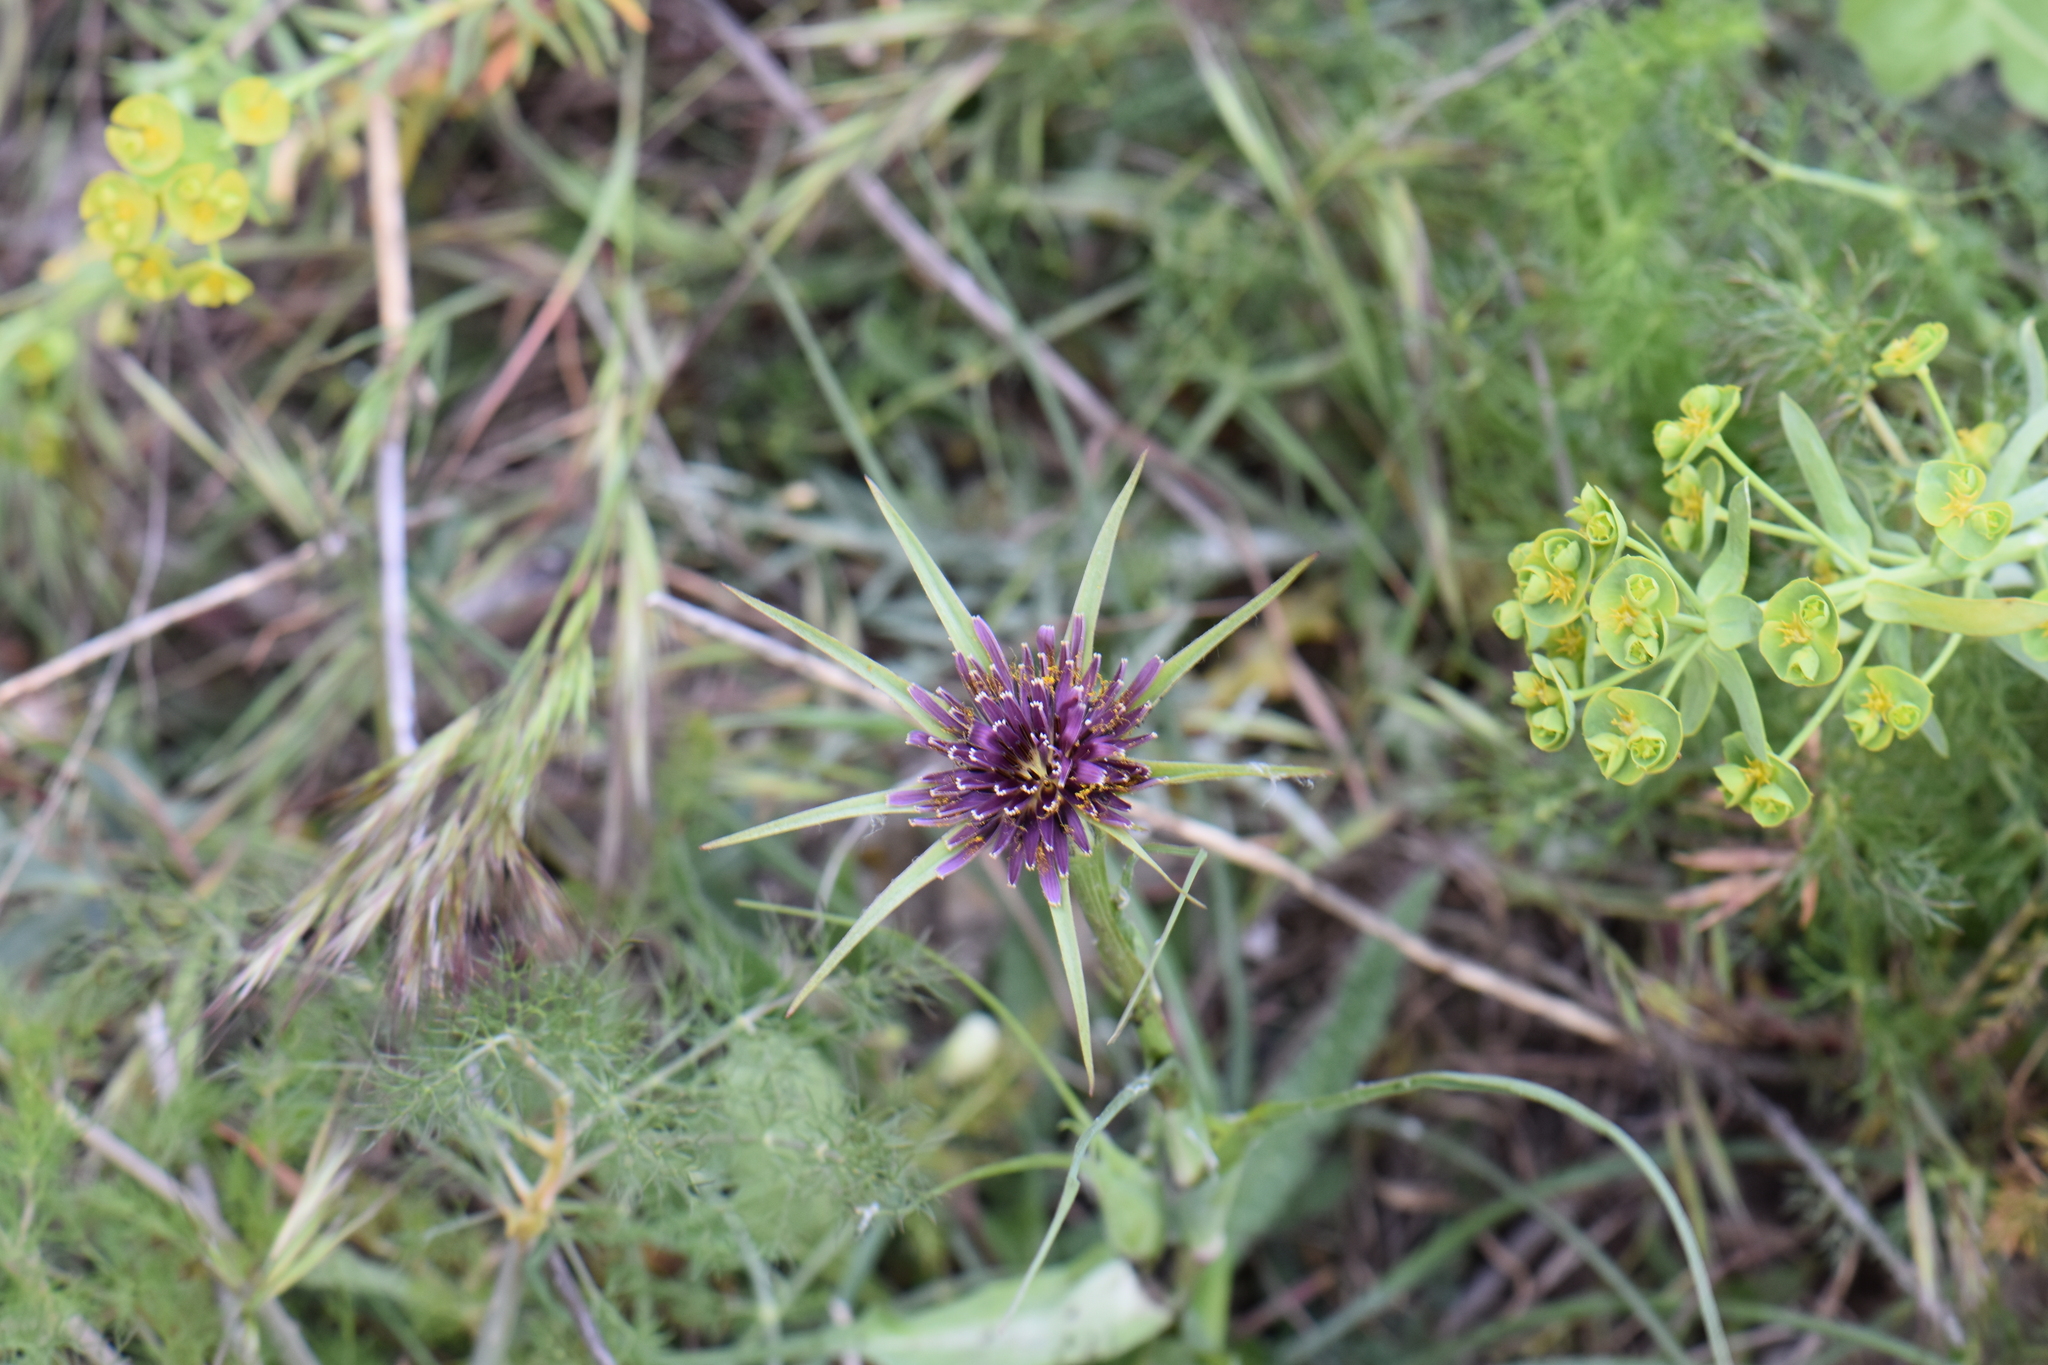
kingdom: Plantae
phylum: Tracheophyta
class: Magnoliopsida
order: Asterales
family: Asteraceae
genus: Tragopogon
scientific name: Tragopogon porrifolius
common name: Salsify
